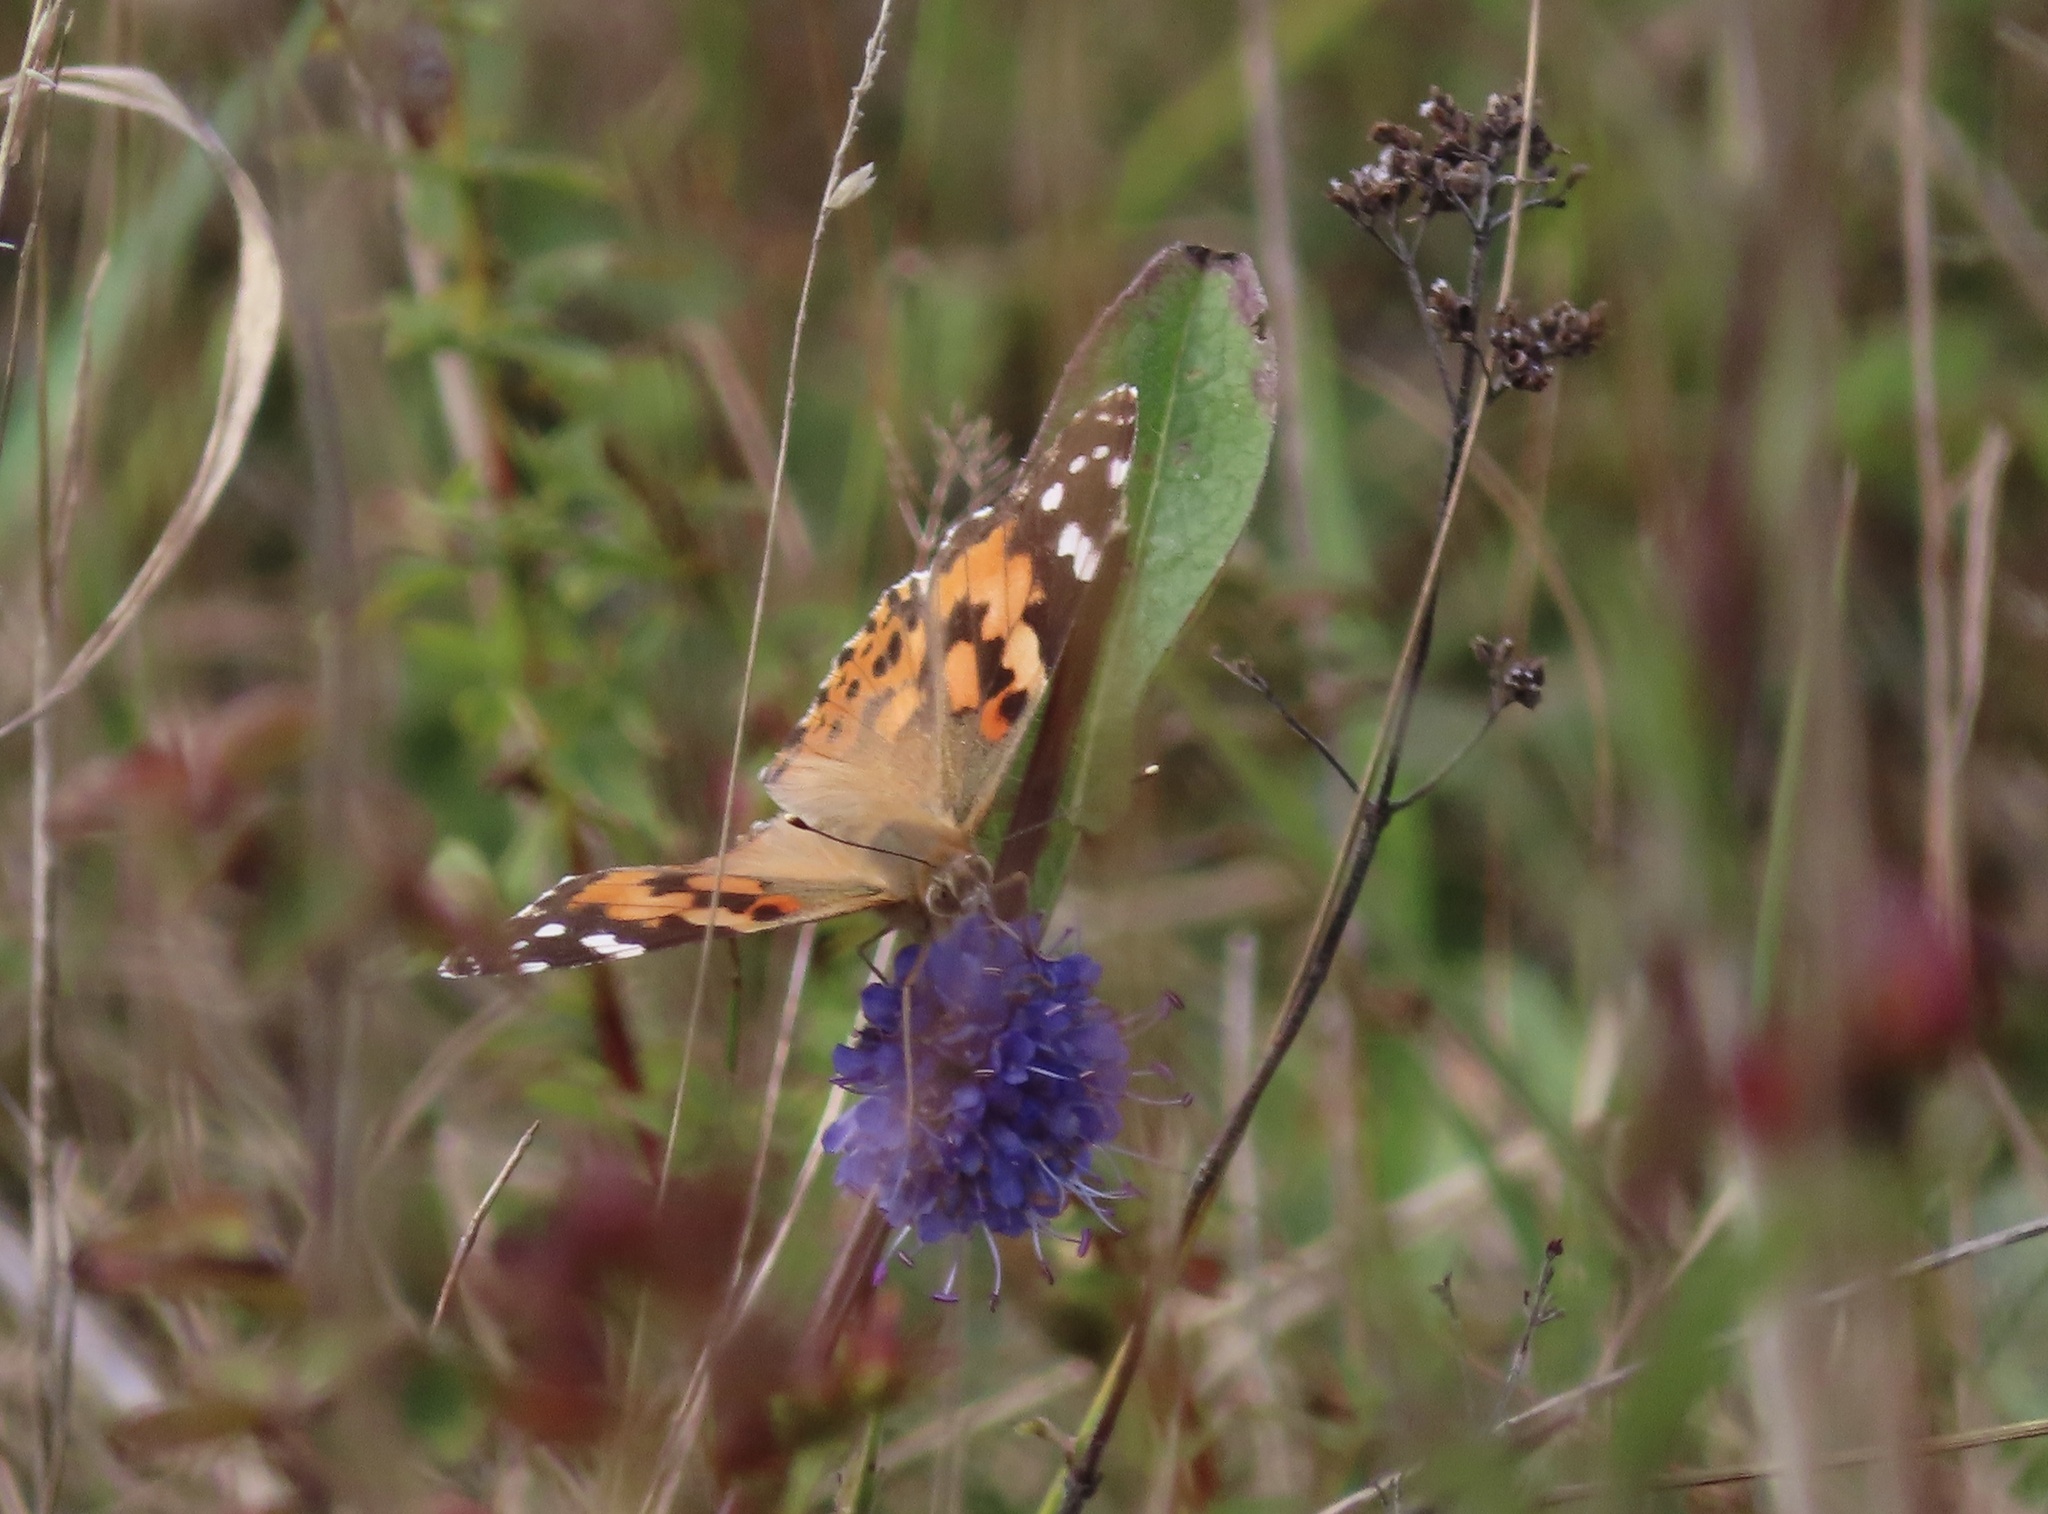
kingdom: Animalia
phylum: Arthropoda
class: Insecta
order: Lepidoptera
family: Nymphalidae
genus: Vanessa
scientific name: Vanessa cardui
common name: Painted lady
